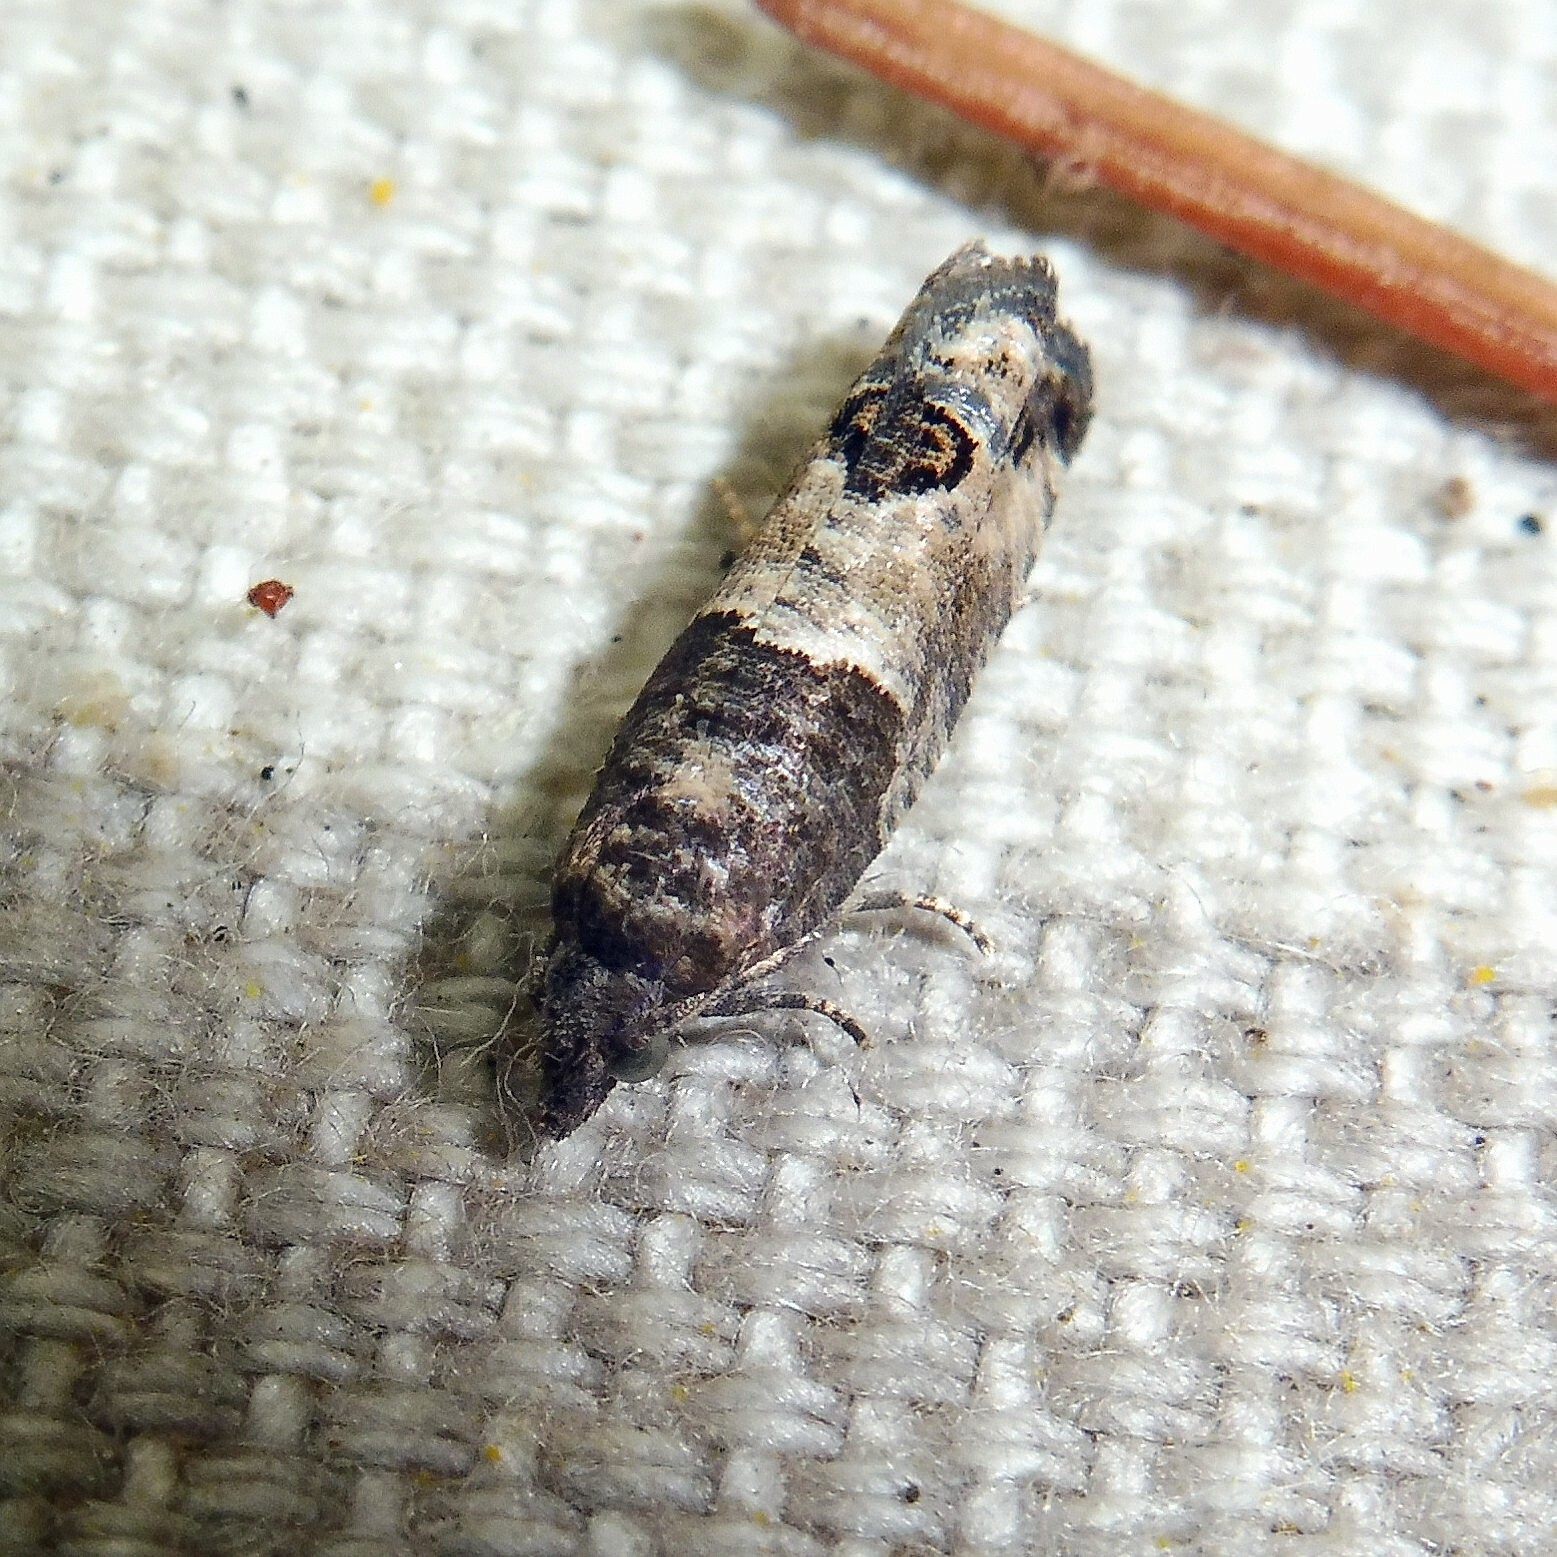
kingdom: Animalia
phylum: Arthropoda
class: Insecta
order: Lepidoptera
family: Tortricidae
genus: Spilonota
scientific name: Spilonota ocellana
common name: Bud moth
